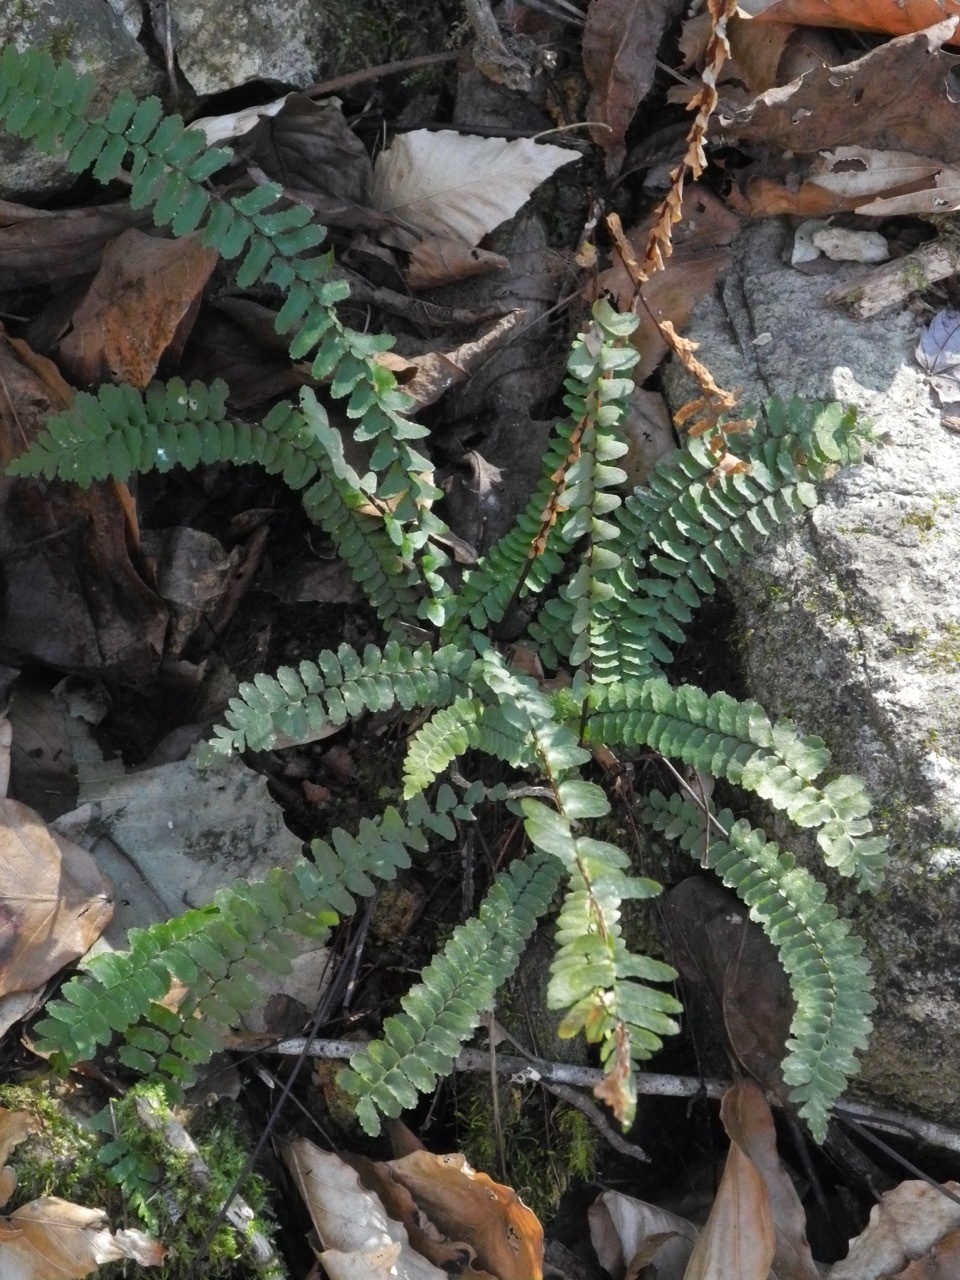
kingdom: Plantae
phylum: Tracheophyta
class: Polypodiopsida
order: Polypodiales
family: Aspleniaceae
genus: Asplenium
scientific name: Asplenium platyneuron
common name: Ebony spleenwort
